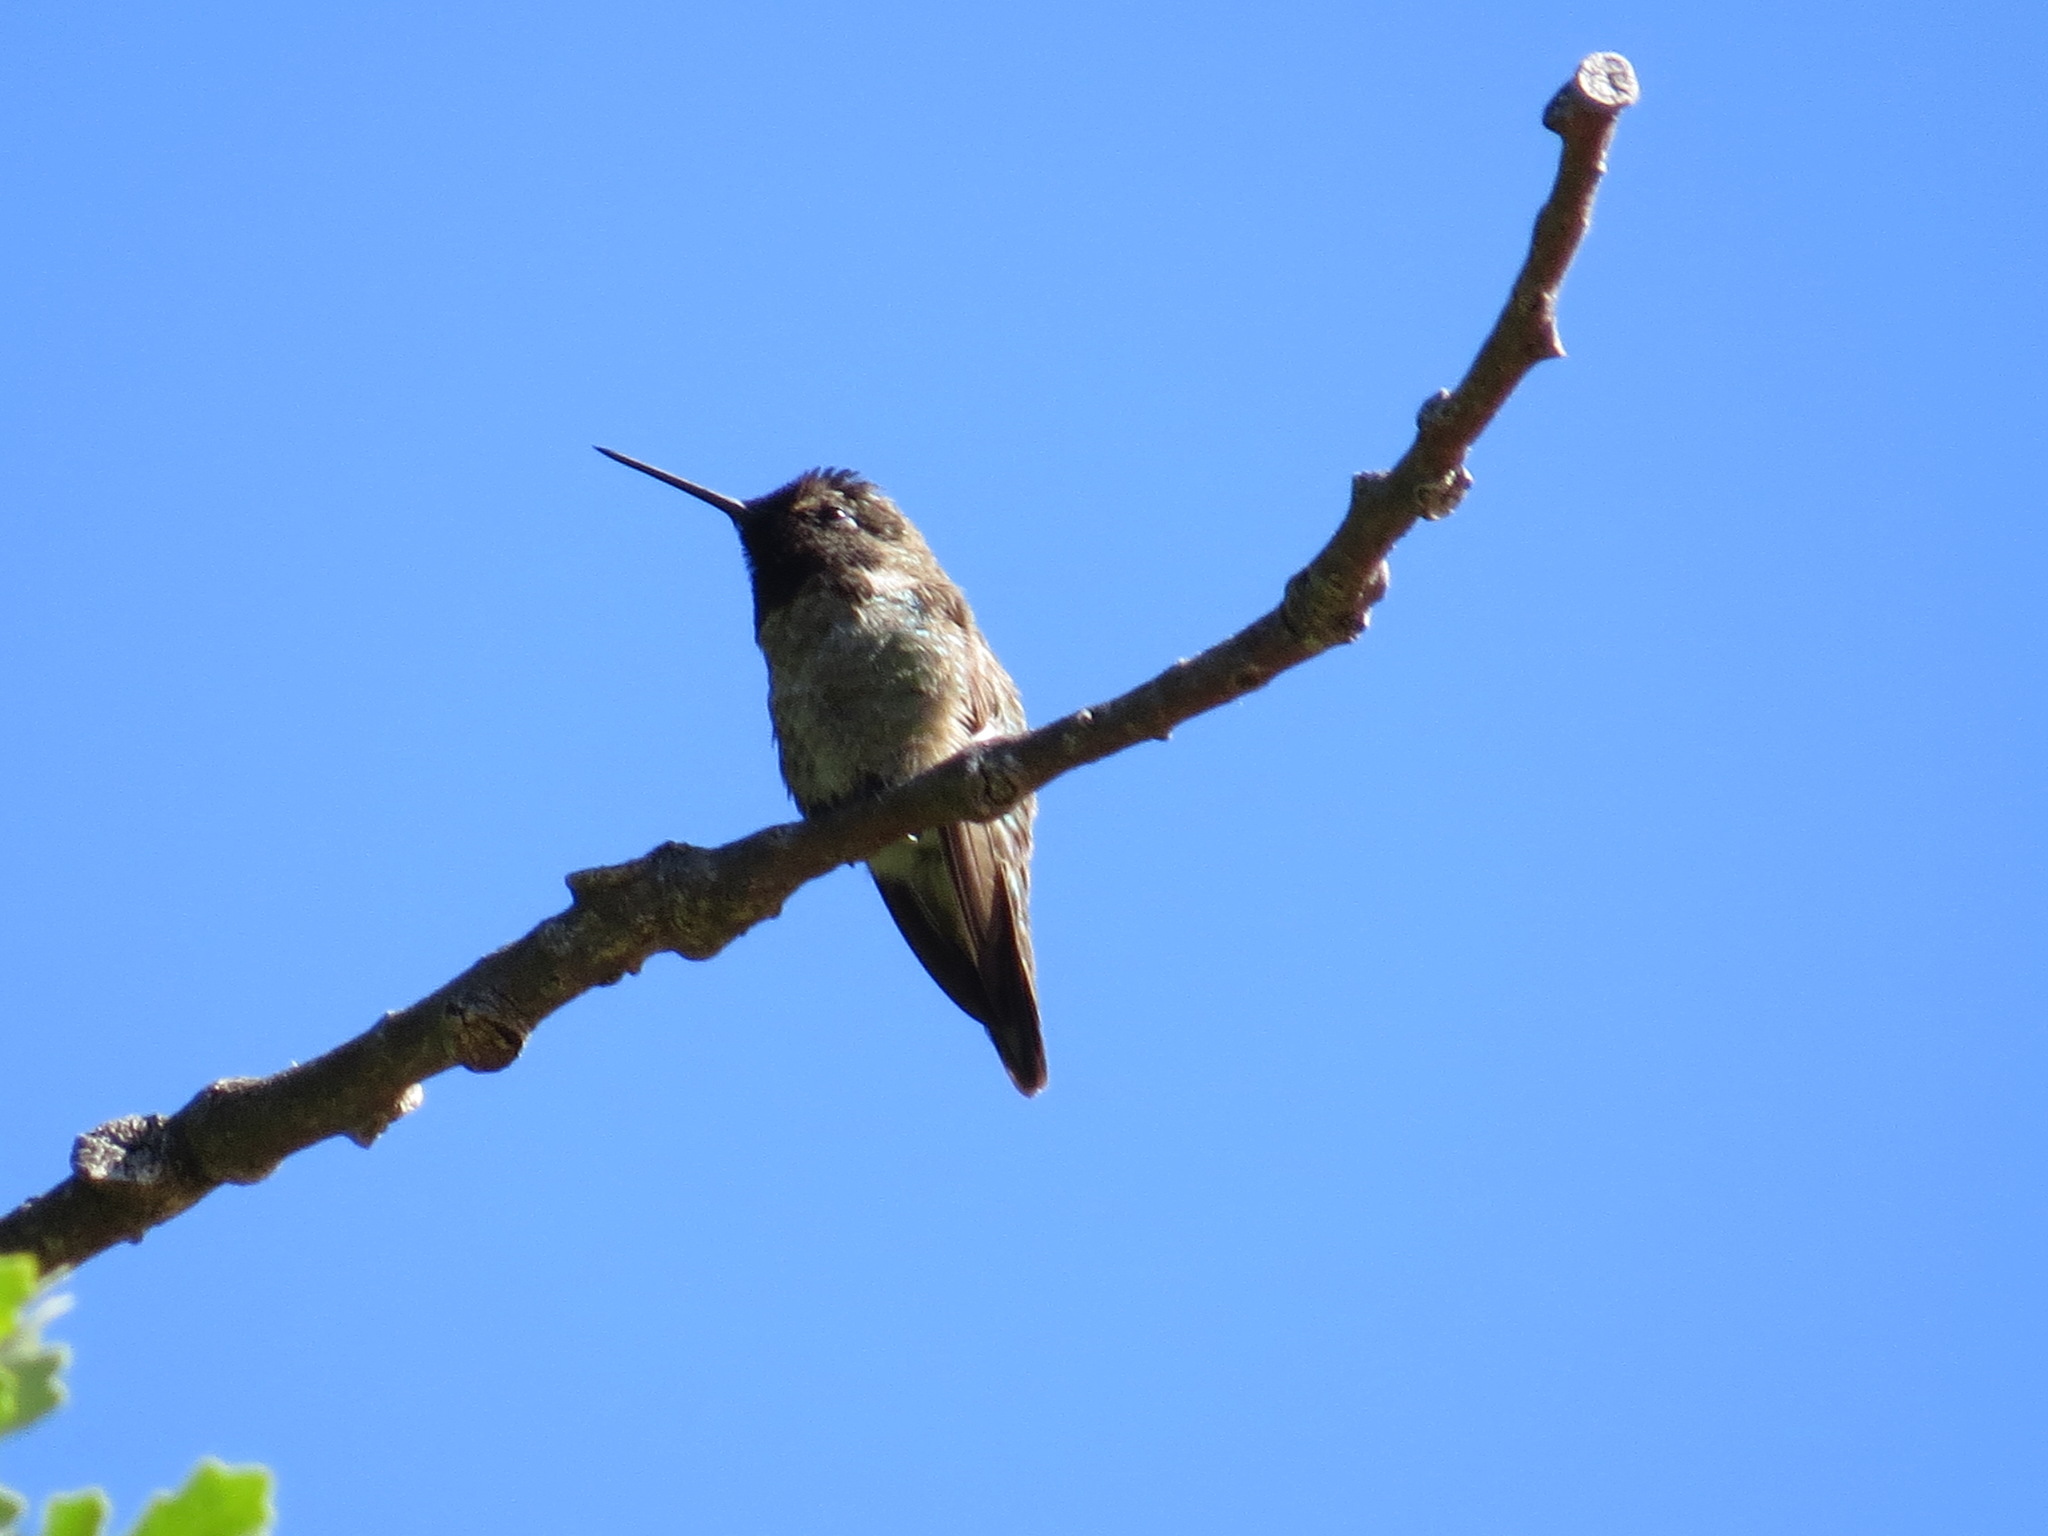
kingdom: Animalia
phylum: Chordata
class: Aves
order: Apodiformes
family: Trochilidae
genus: Calypte
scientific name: Calypte anna
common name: Anna's hummingbird
